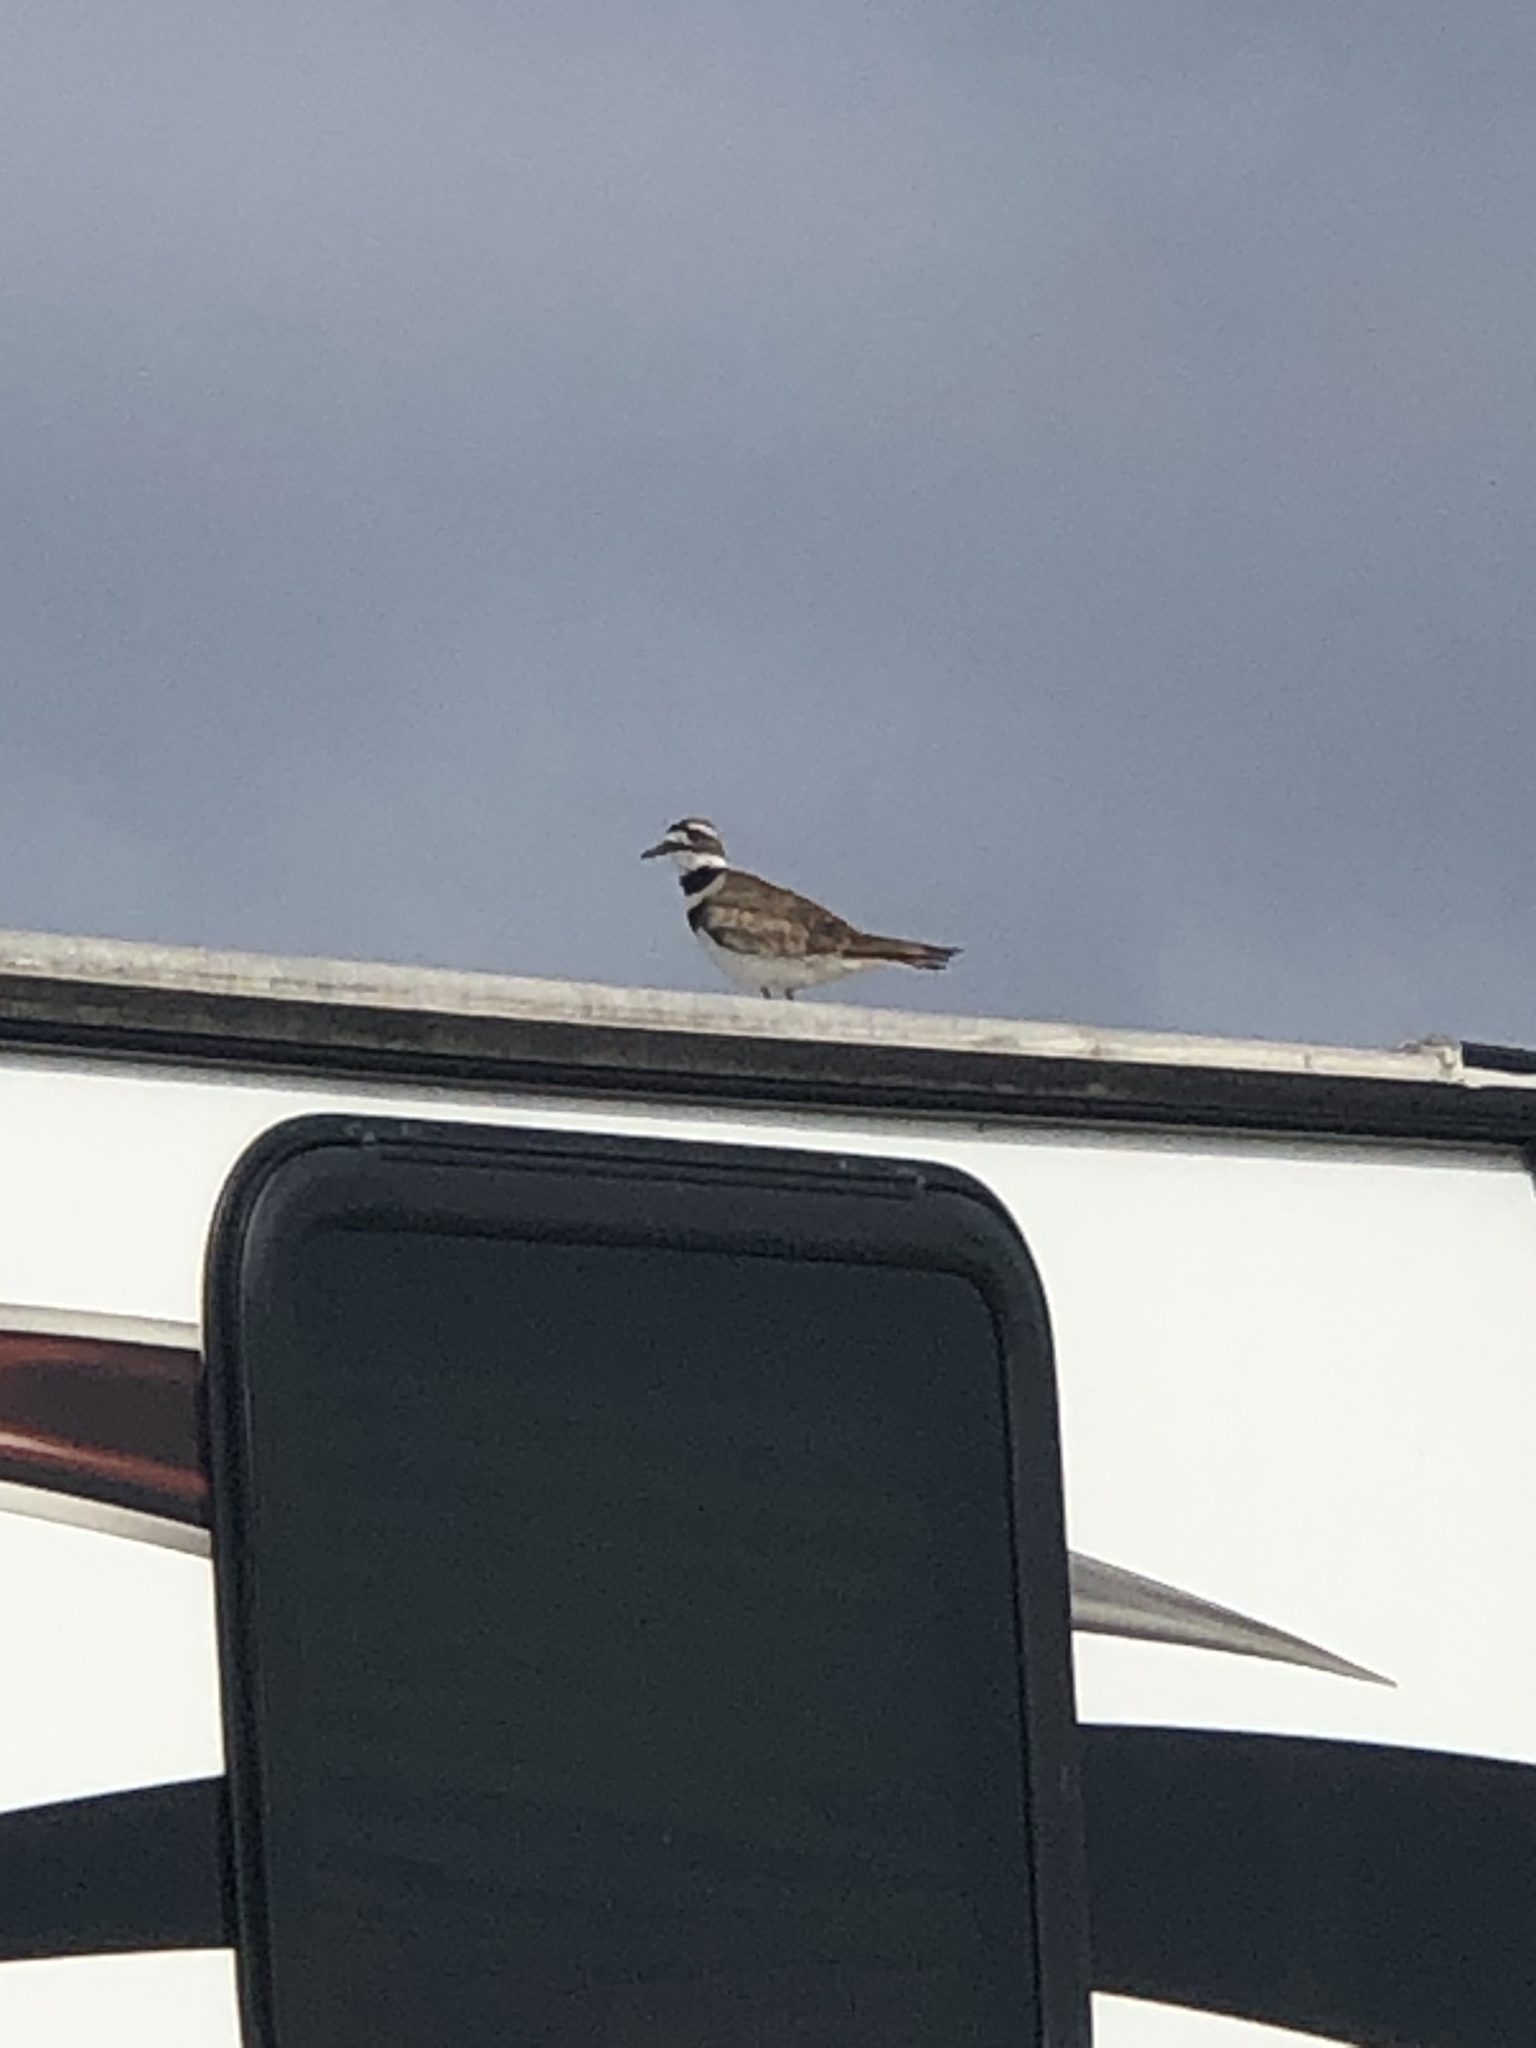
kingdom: Animalia
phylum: Chordata
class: Aves
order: Charadriiformes
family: Charadriidae
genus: Charadrius
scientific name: Charadrius vociferus
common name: Killdeer
